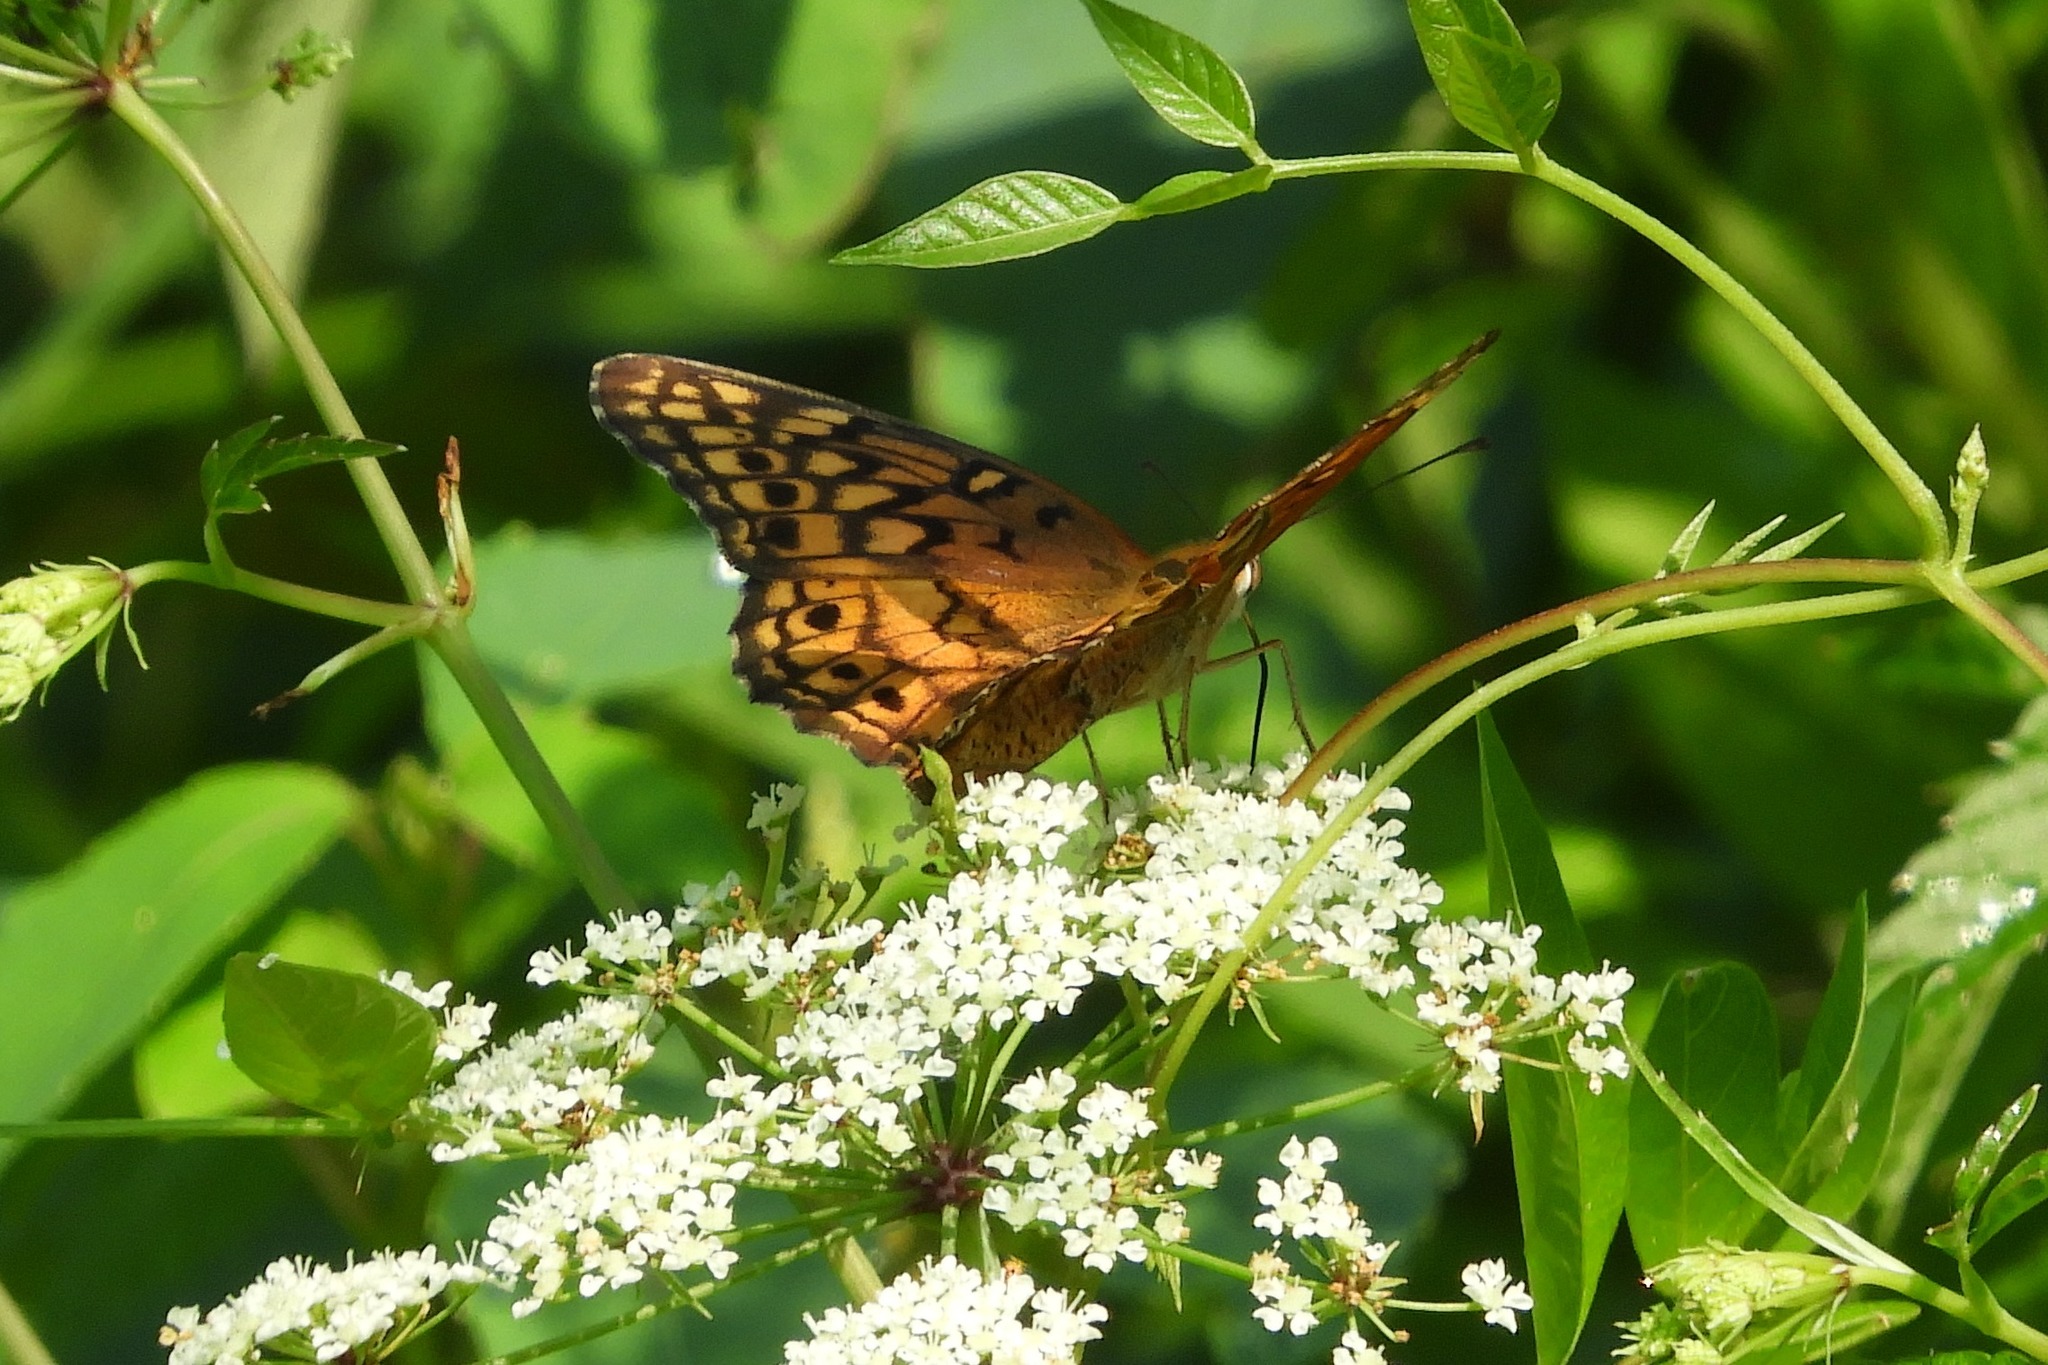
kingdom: Animalia
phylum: Arthropoda
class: Insecta
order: Lepidoptera
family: Nymphalidae
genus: Euptoieta
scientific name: Euptoieta claudia
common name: Variegated fritillary
